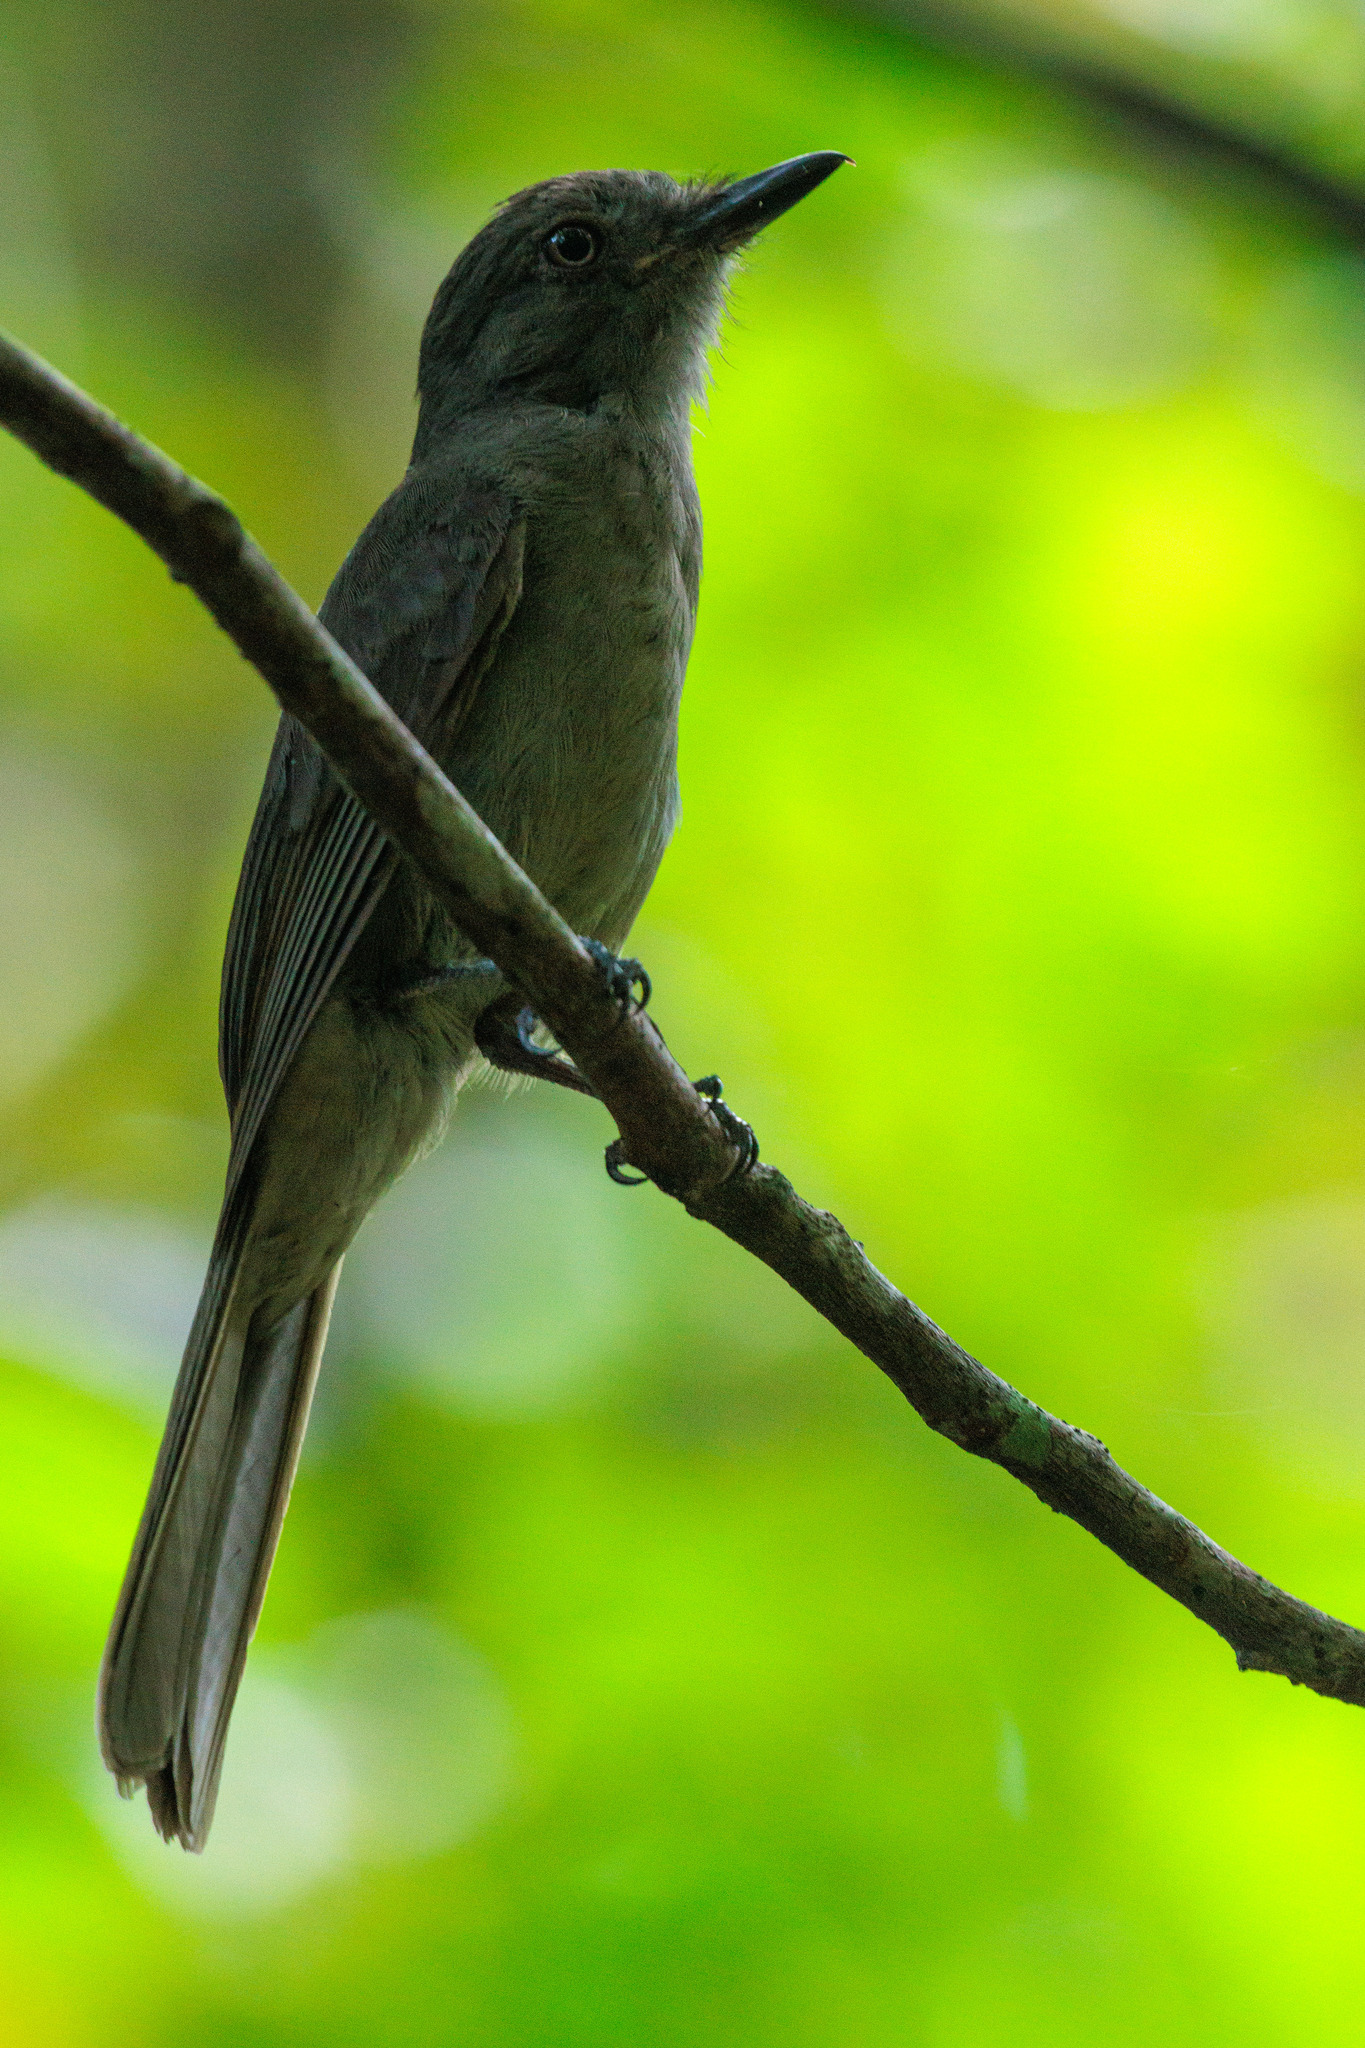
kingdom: Animalia
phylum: Chordata
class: Aves
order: Passeriformes
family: Tyrannidae
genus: Rhytipterna
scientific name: Rhytipterna simplex
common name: Greyish mourner
